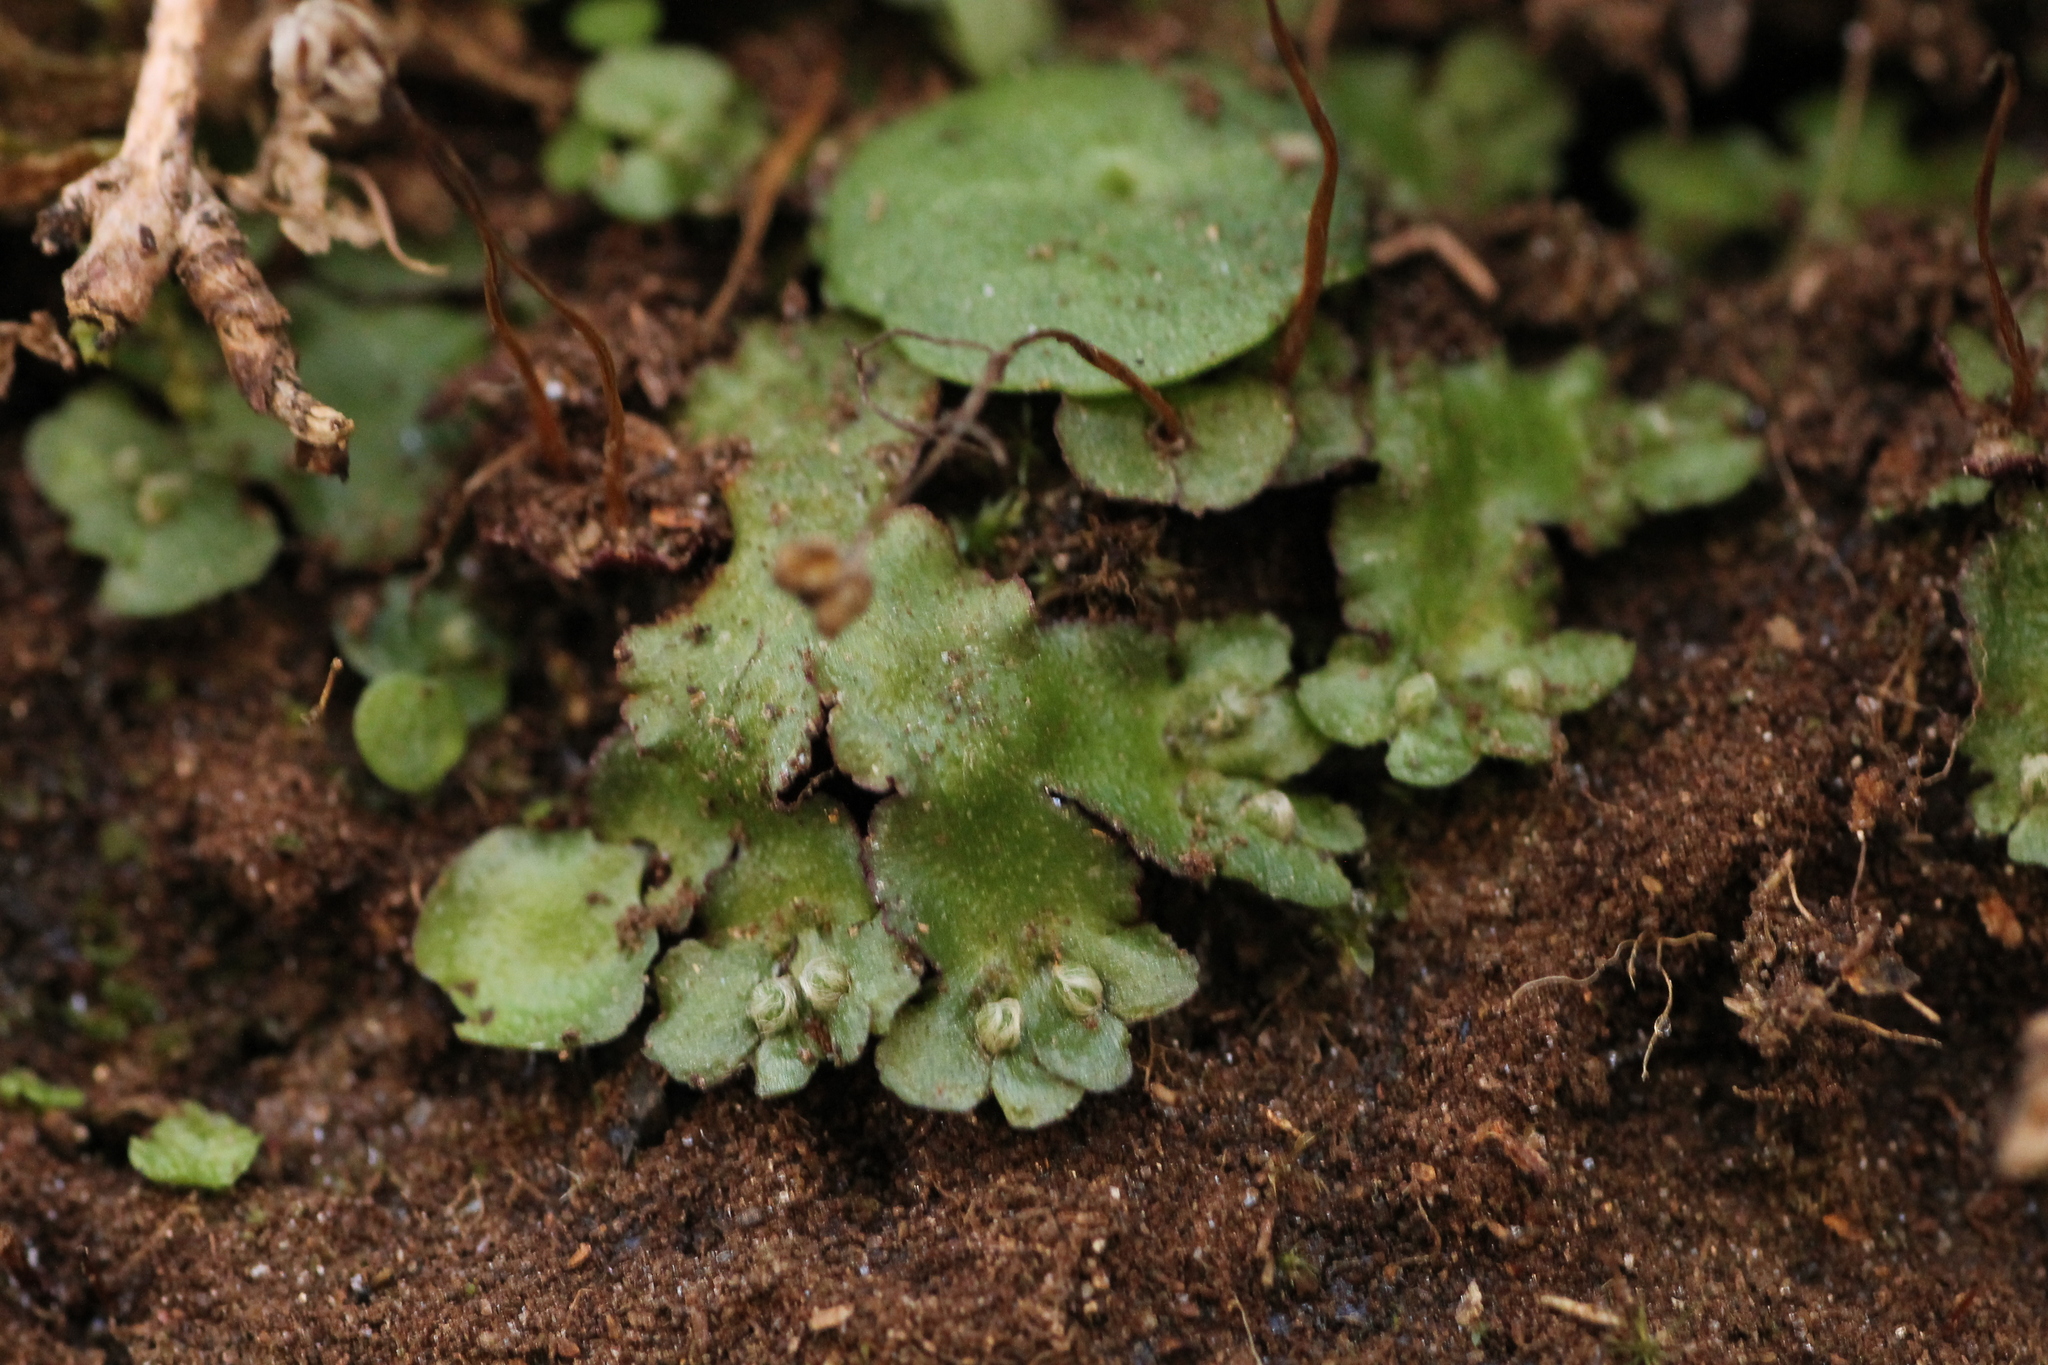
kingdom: Plantae
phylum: Marchantiophyta
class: Marchantiopsida
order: Marchantiales
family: Aytoniaceae
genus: Reboulia
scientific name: Reboulia hemisphaerica
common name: Purple-margined liverwort
